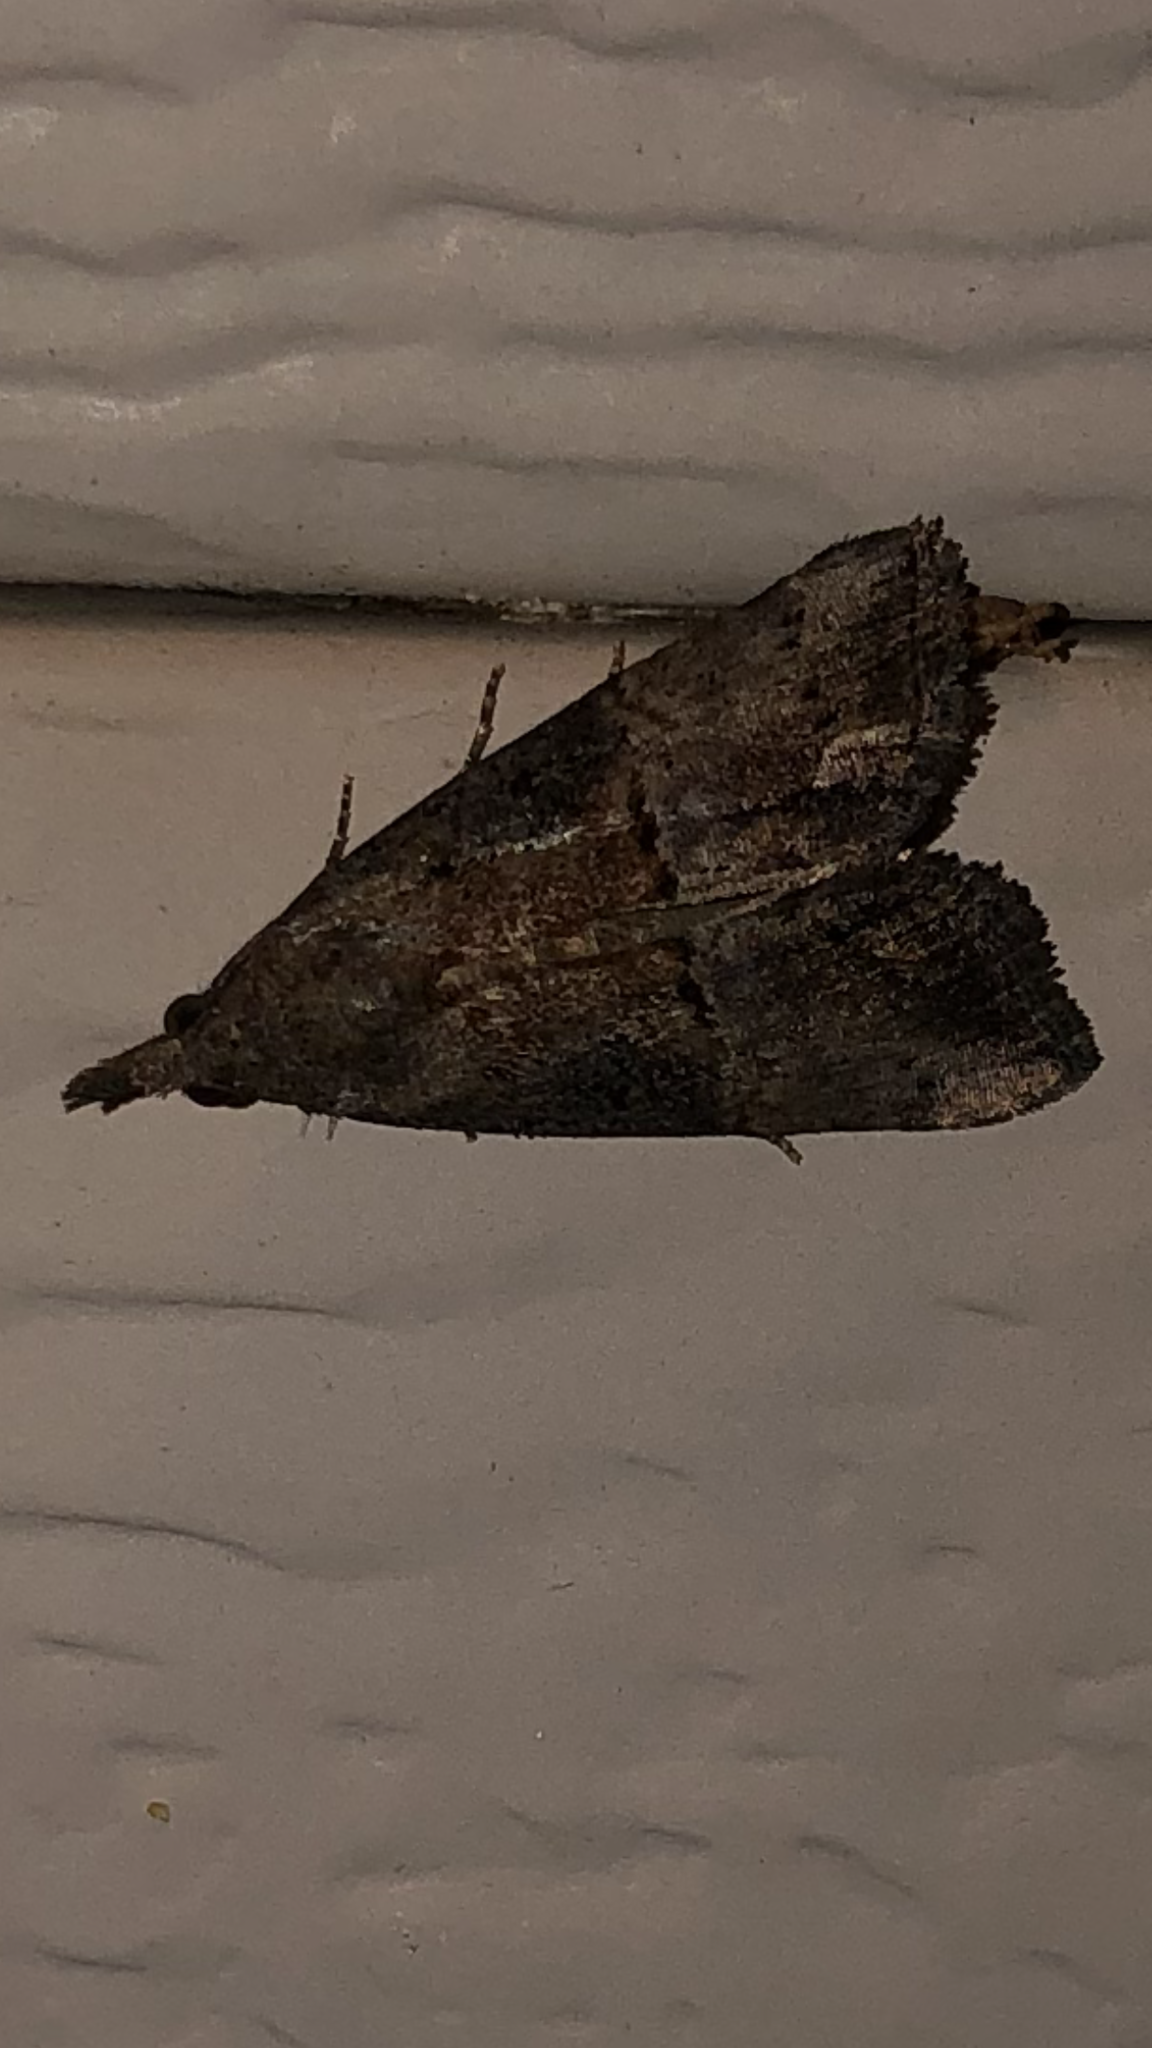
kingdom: Animalia
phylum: Arthropoda
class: Insecta
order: Lepidoptera
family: Erebidae
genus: Hypena
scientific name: Hypena scabra
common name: Green cloverworm
